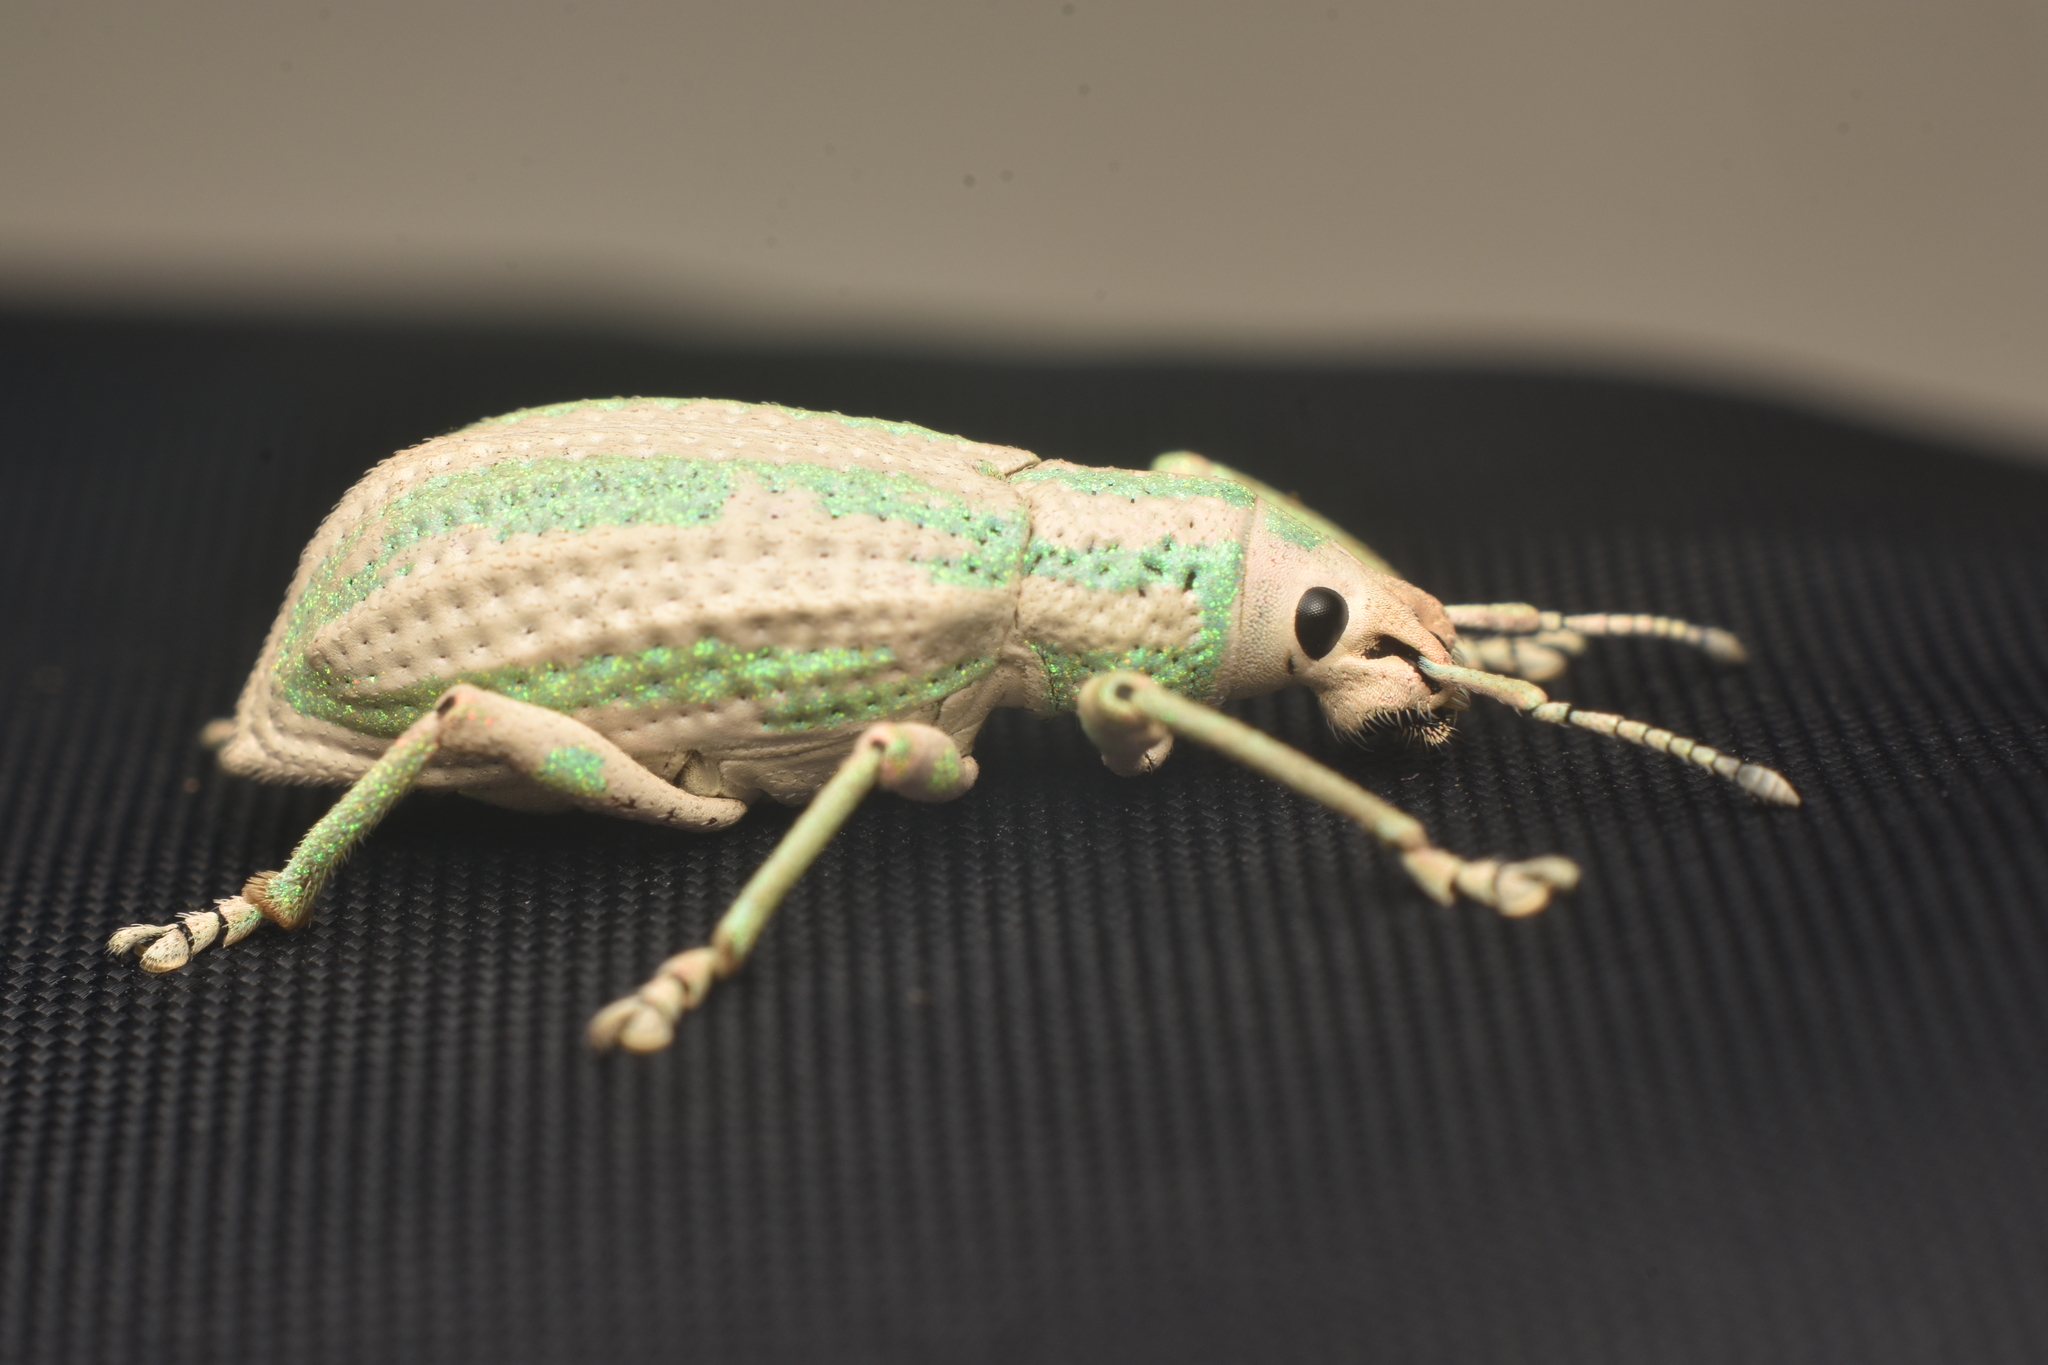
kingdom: Animalia
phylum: Arthropoda
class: Insecta
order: Coleoptera
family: Curculionidae
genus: Compsus
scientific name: Compsus viridivittatus
